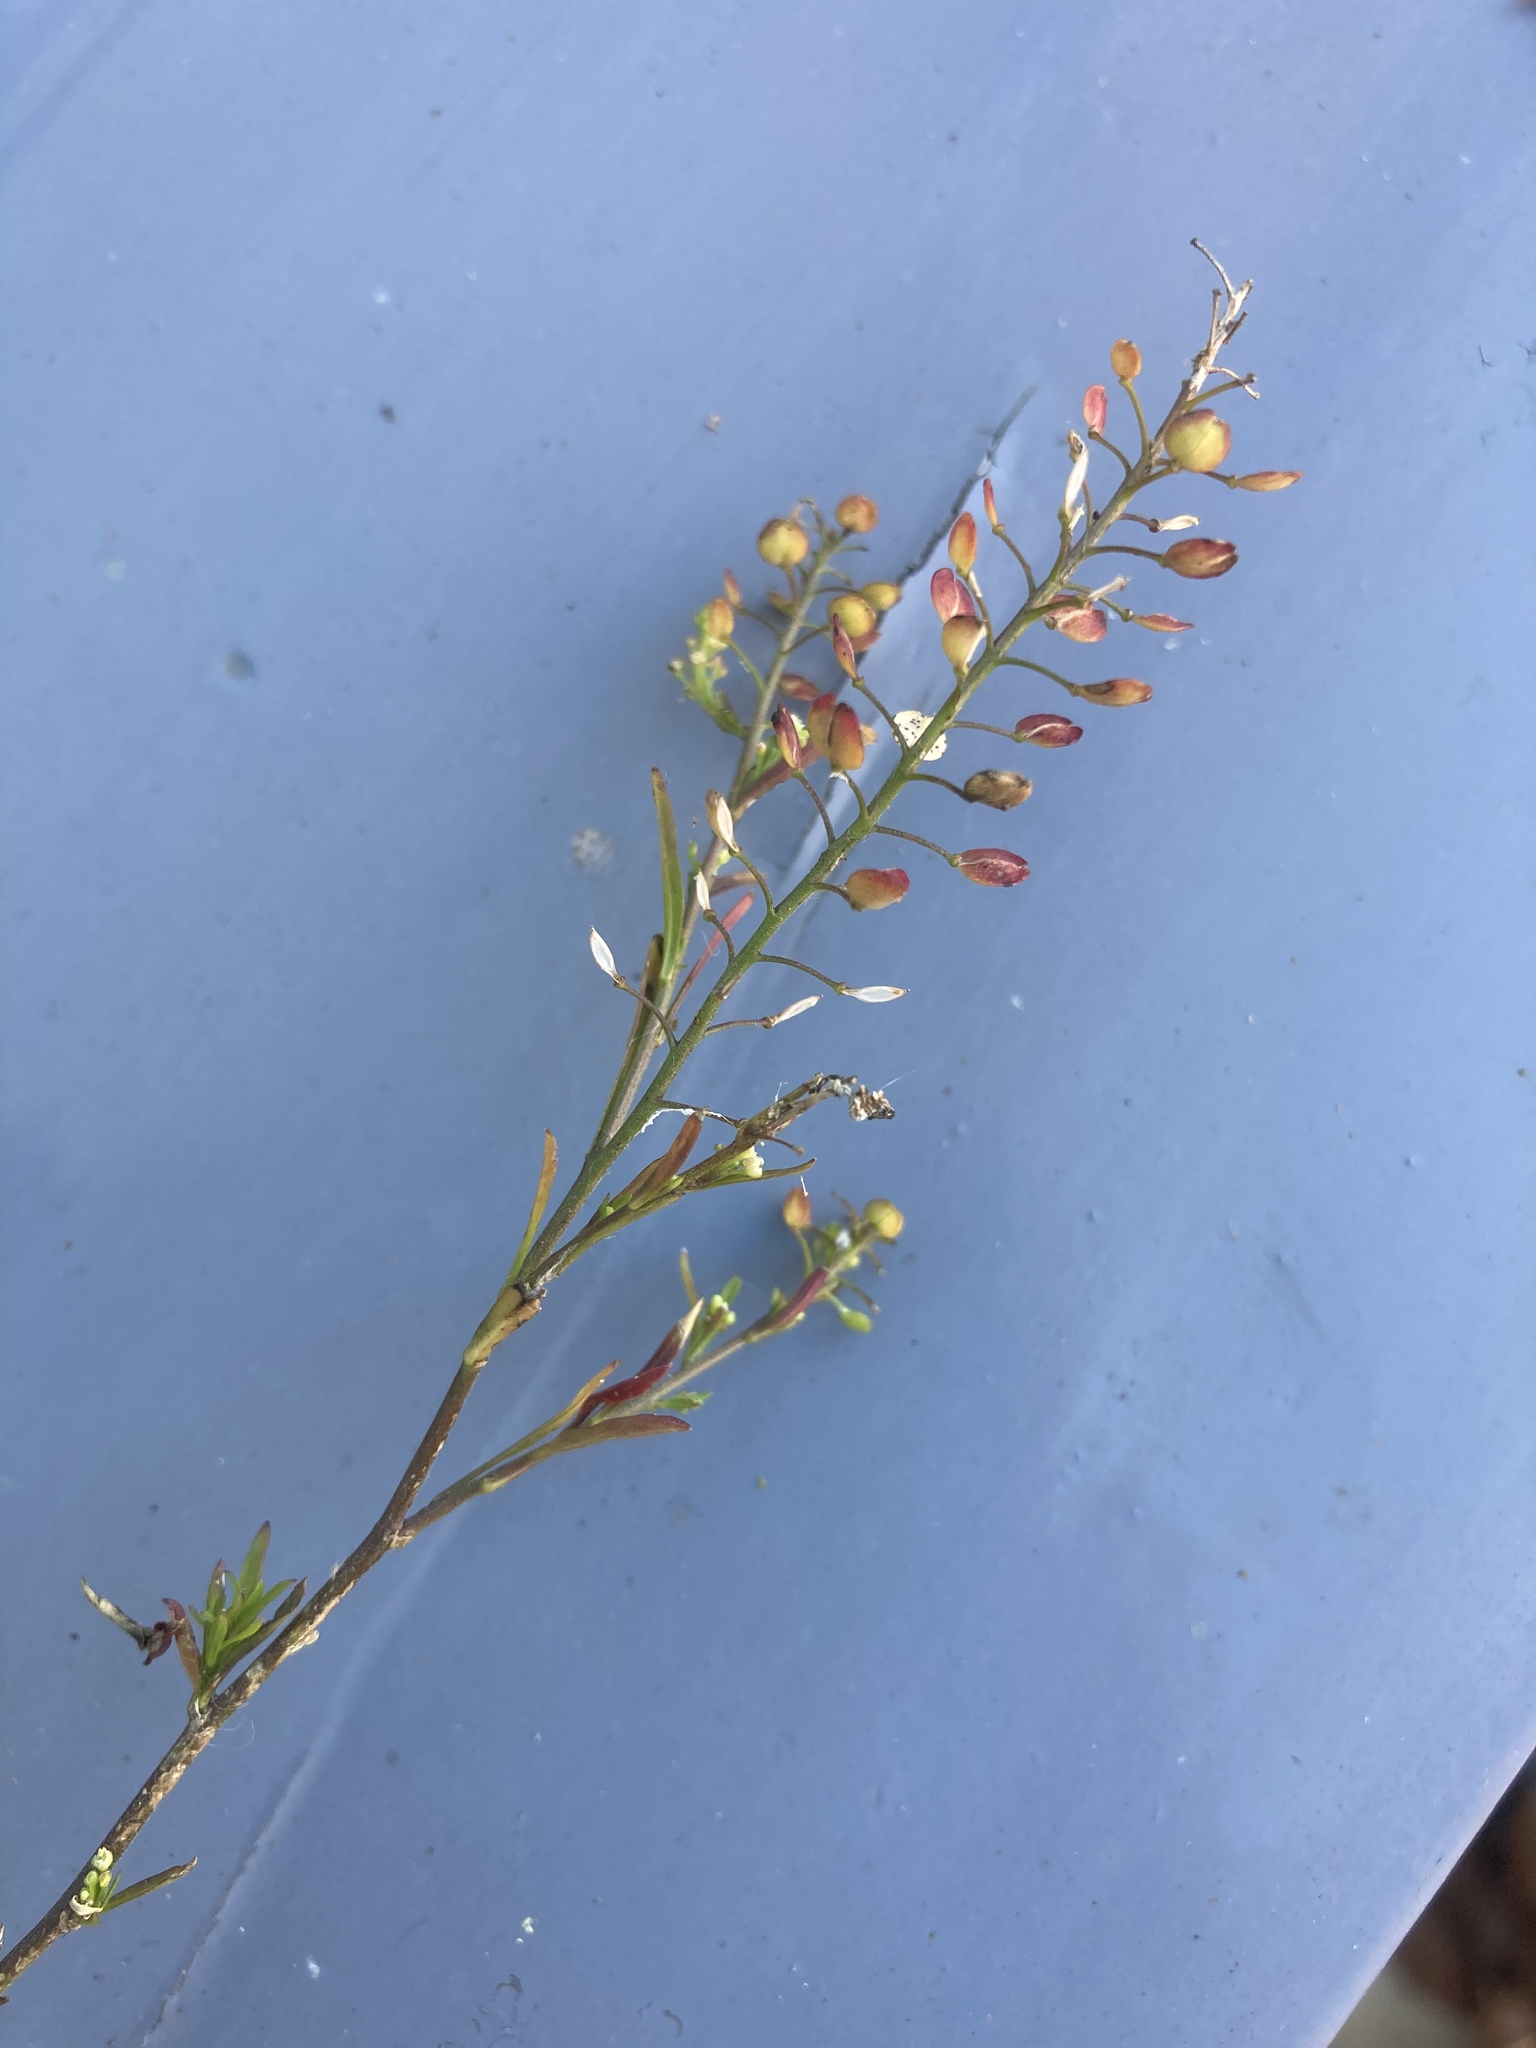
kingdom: Plantae
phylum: Tracheophyta
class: Magnoliopsida
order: Brassicales
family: Brassicaceae
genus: Lepidium
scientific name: Lepidium virginicum
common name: Least pepperwort
